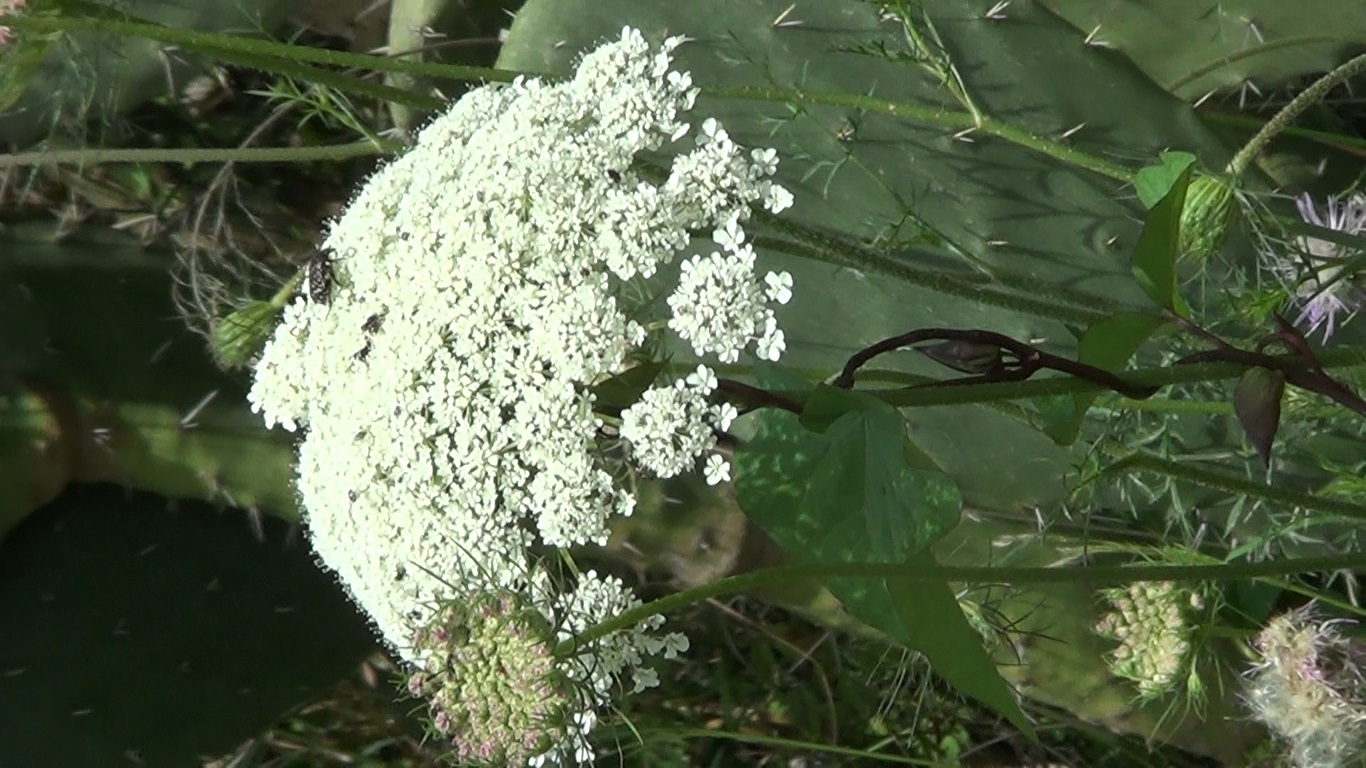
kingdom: Plantae
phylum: Tracheophyta
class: Magnoliopsida
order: Apiales
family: Apiaceae
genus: Daucus
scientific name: Daucus carota
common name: Wild carrot
